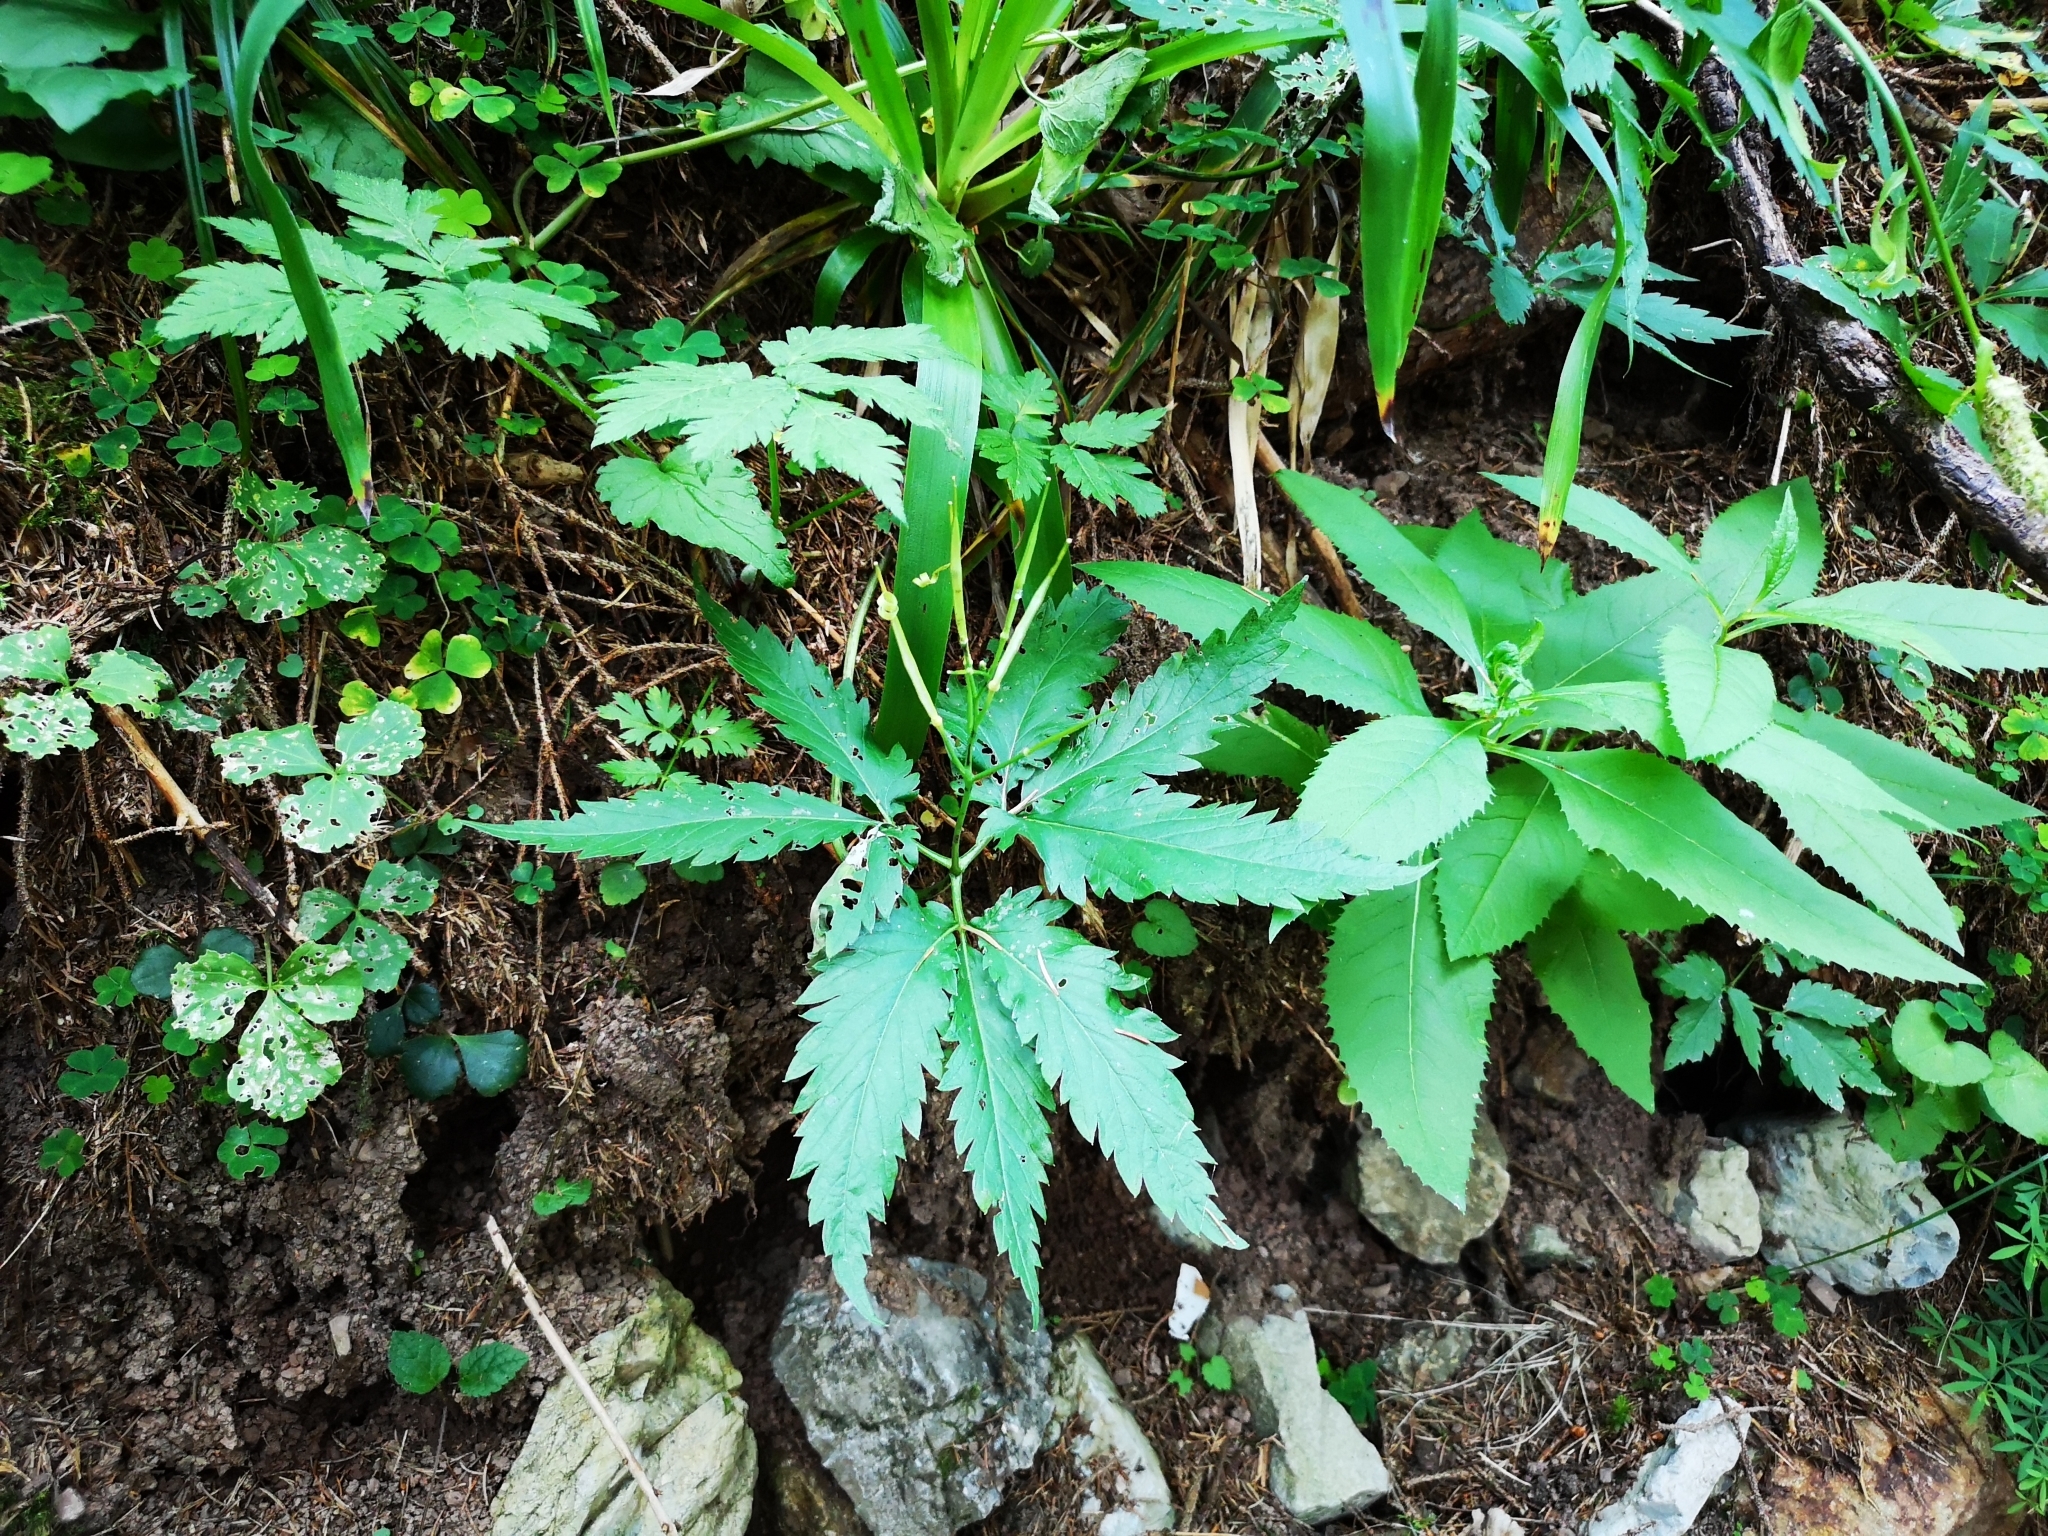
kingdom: Plantae
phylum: Tracheophyta
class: Magnoliopsida
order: Brassicales
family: Brassicaceae
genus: Cardamine
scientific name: Cardamine glanduligera
